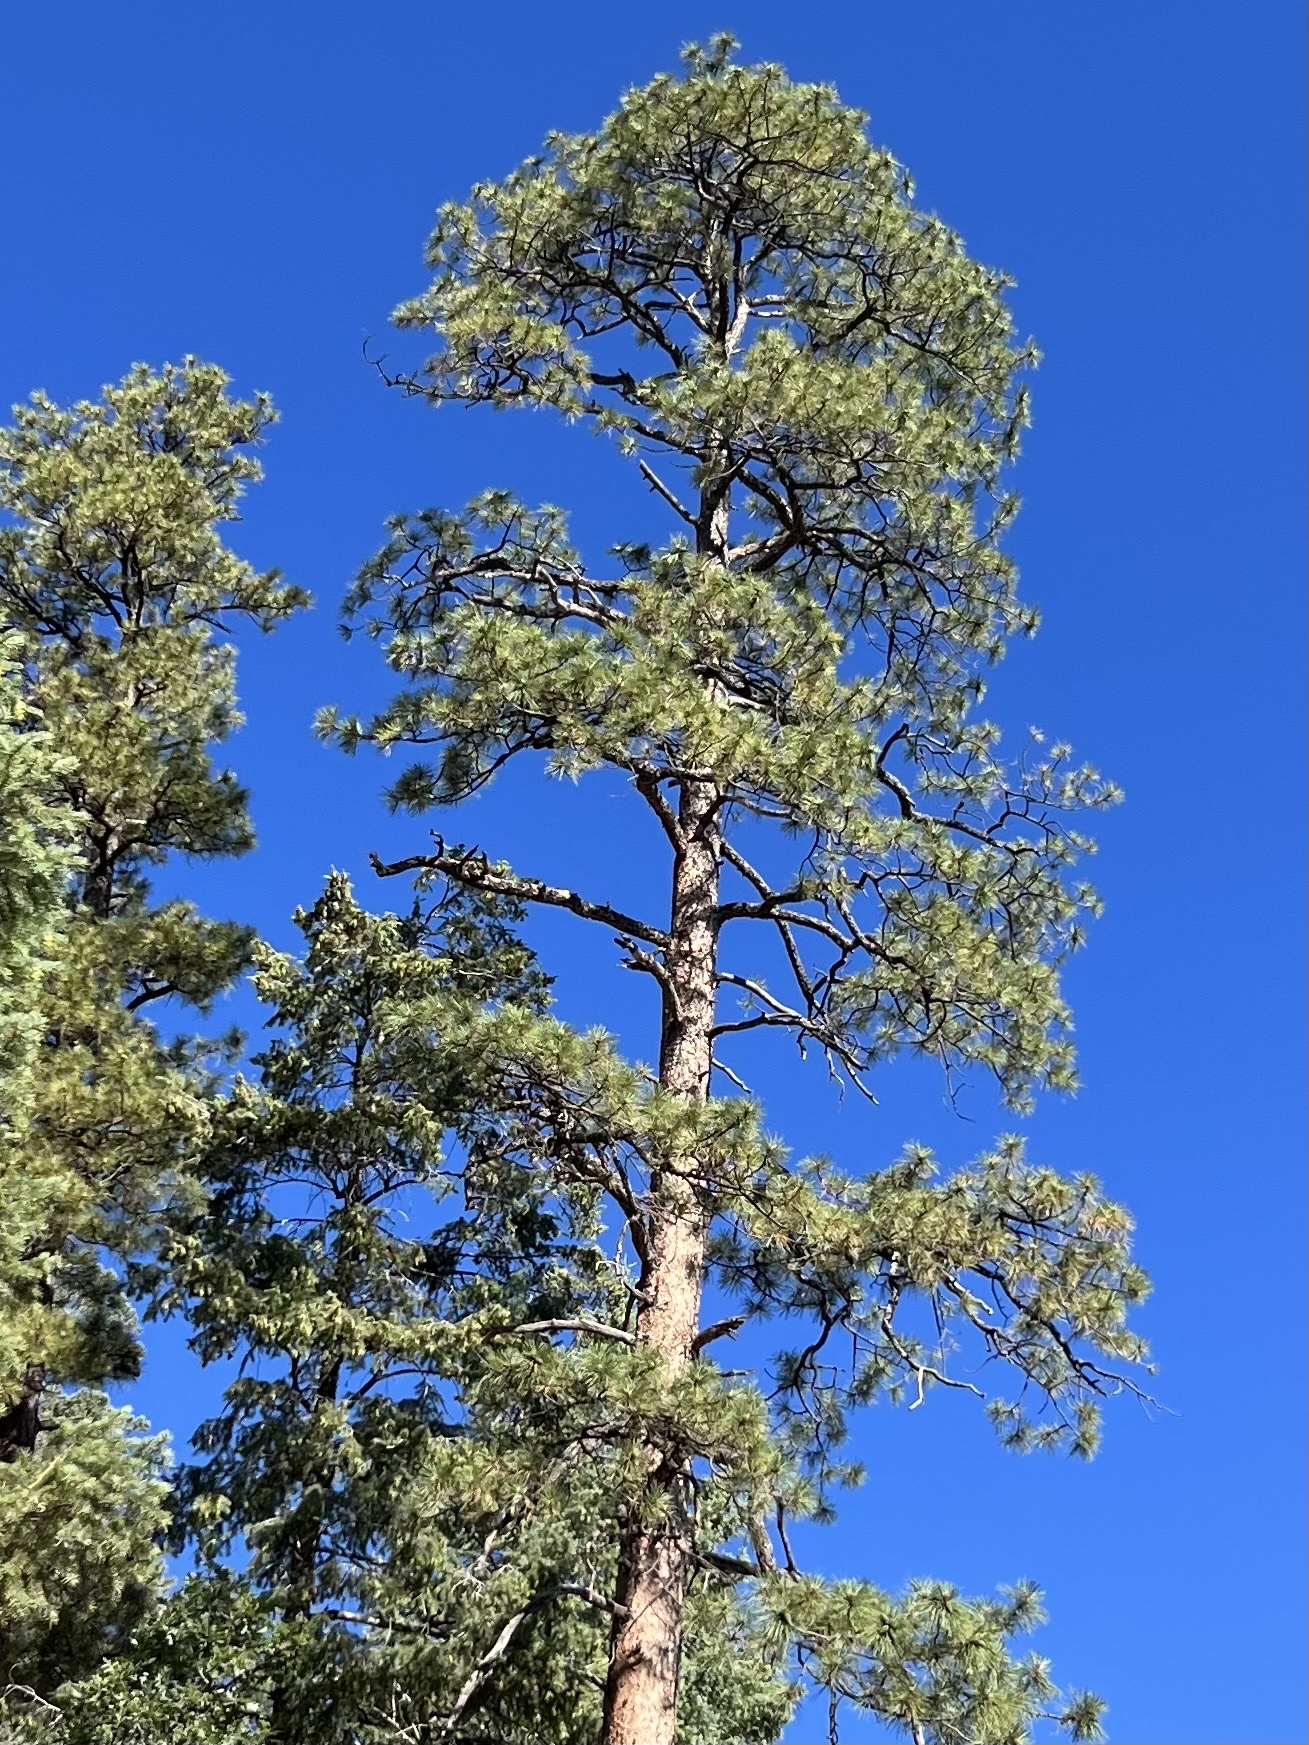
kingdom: Plantae
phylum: Tracheophyta
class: Pinopsida
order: Pinales
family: Pinaceae
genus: Pinus
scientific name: Pinus ponderosa
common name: Western yellow-pine
